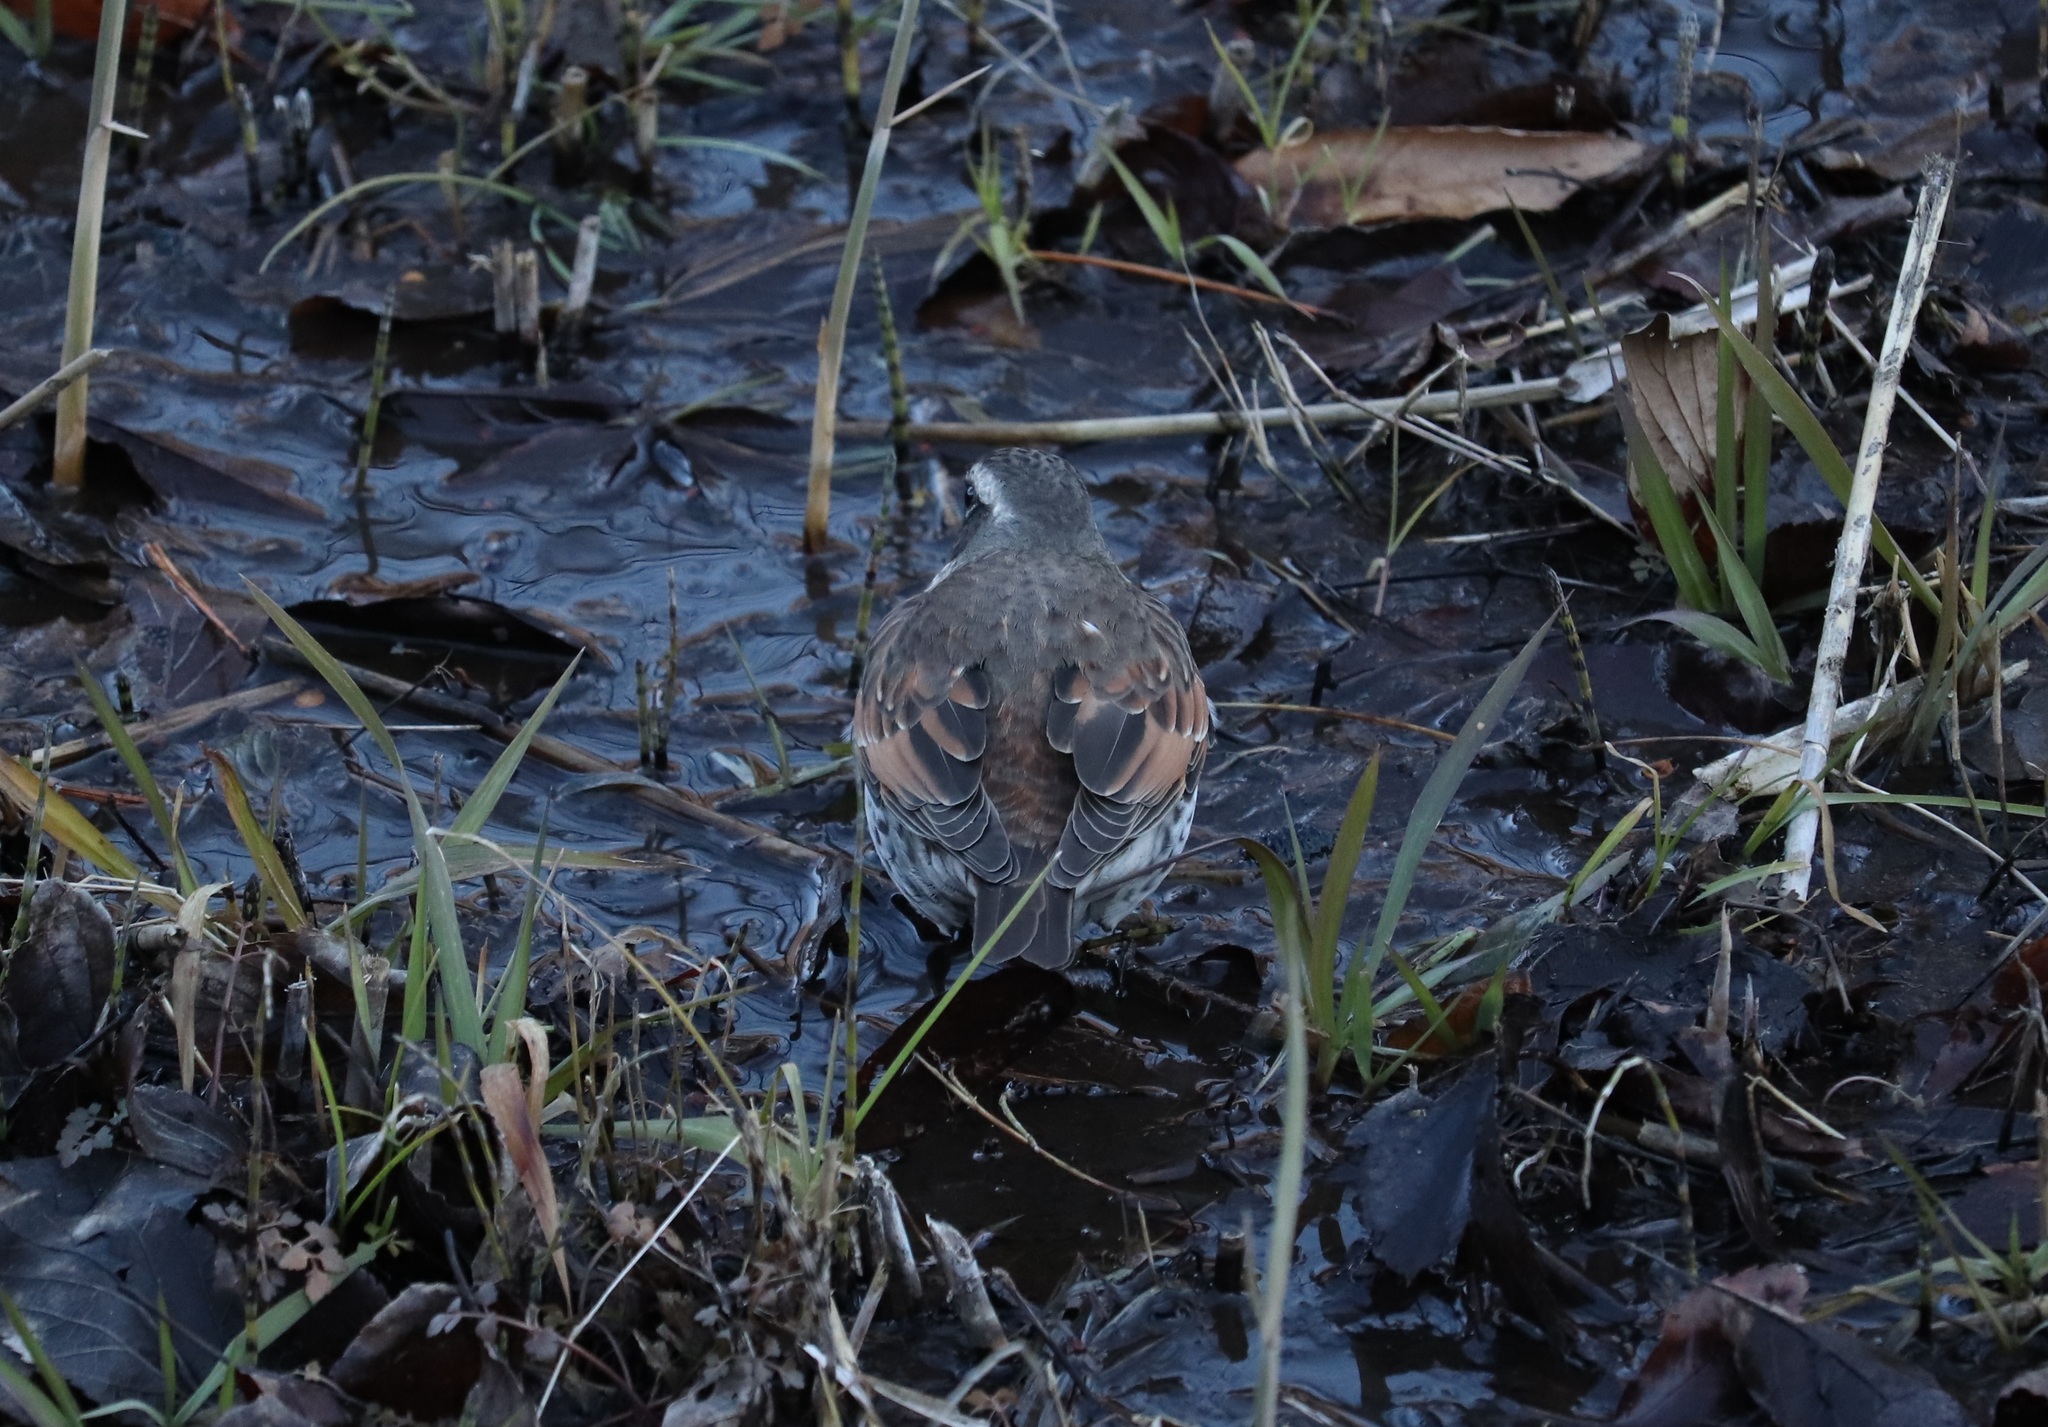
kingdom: Animalia
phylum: Chordata
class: Aves
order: Passeriformes
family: Turdidae
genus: Turdus
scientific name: Turdus eunomus
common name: Dusky thrush
